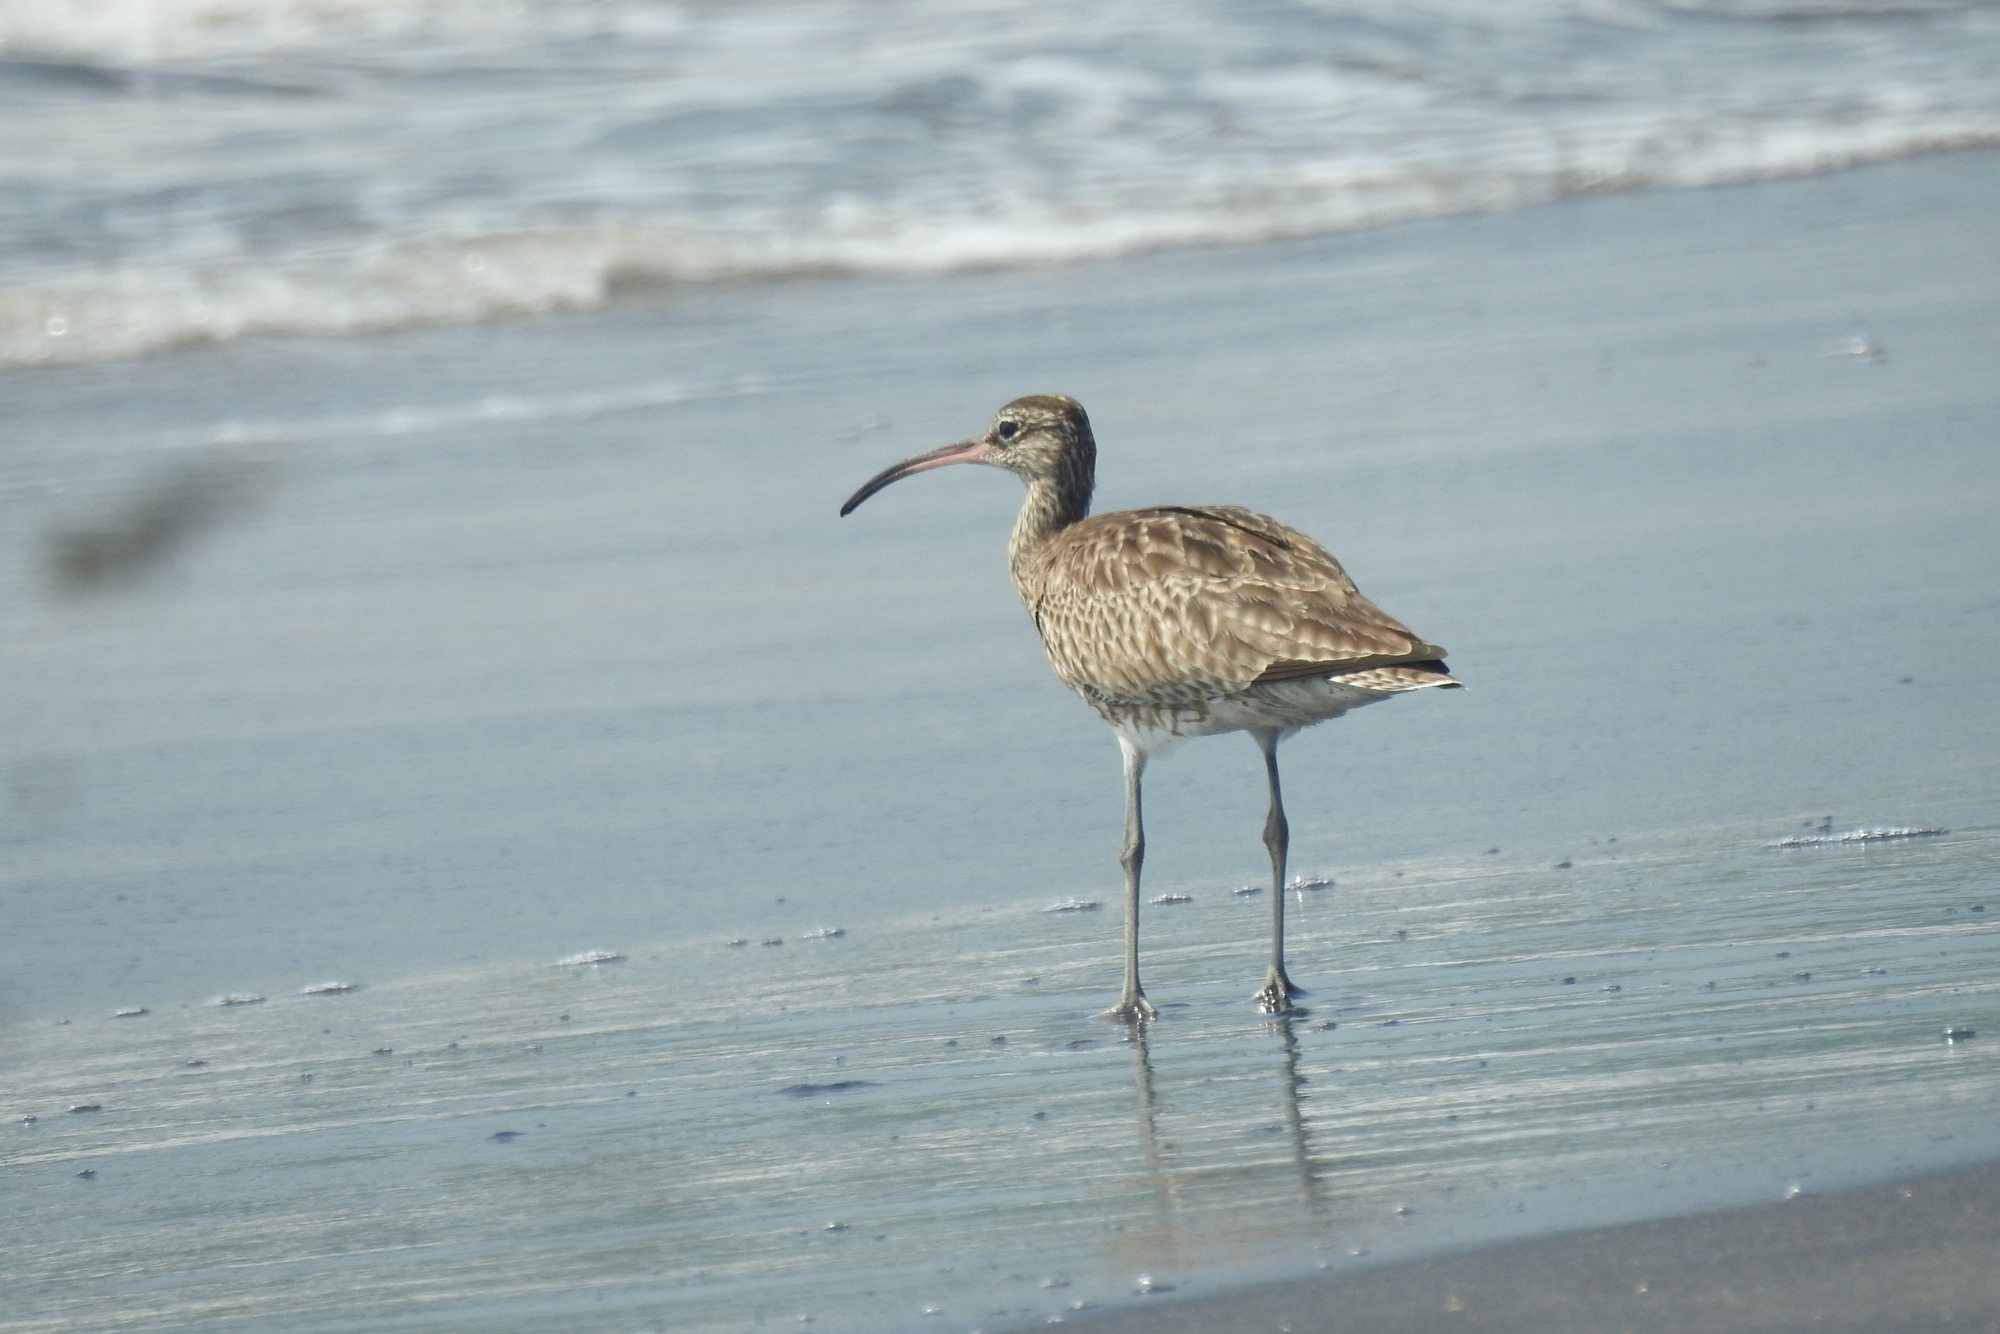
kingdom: Animalia
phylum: Chordata
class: Aves
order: Charadriiformes
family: Scolopacidae
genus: Numenius
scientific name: Numenius phaeopus
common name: Whimbrel
